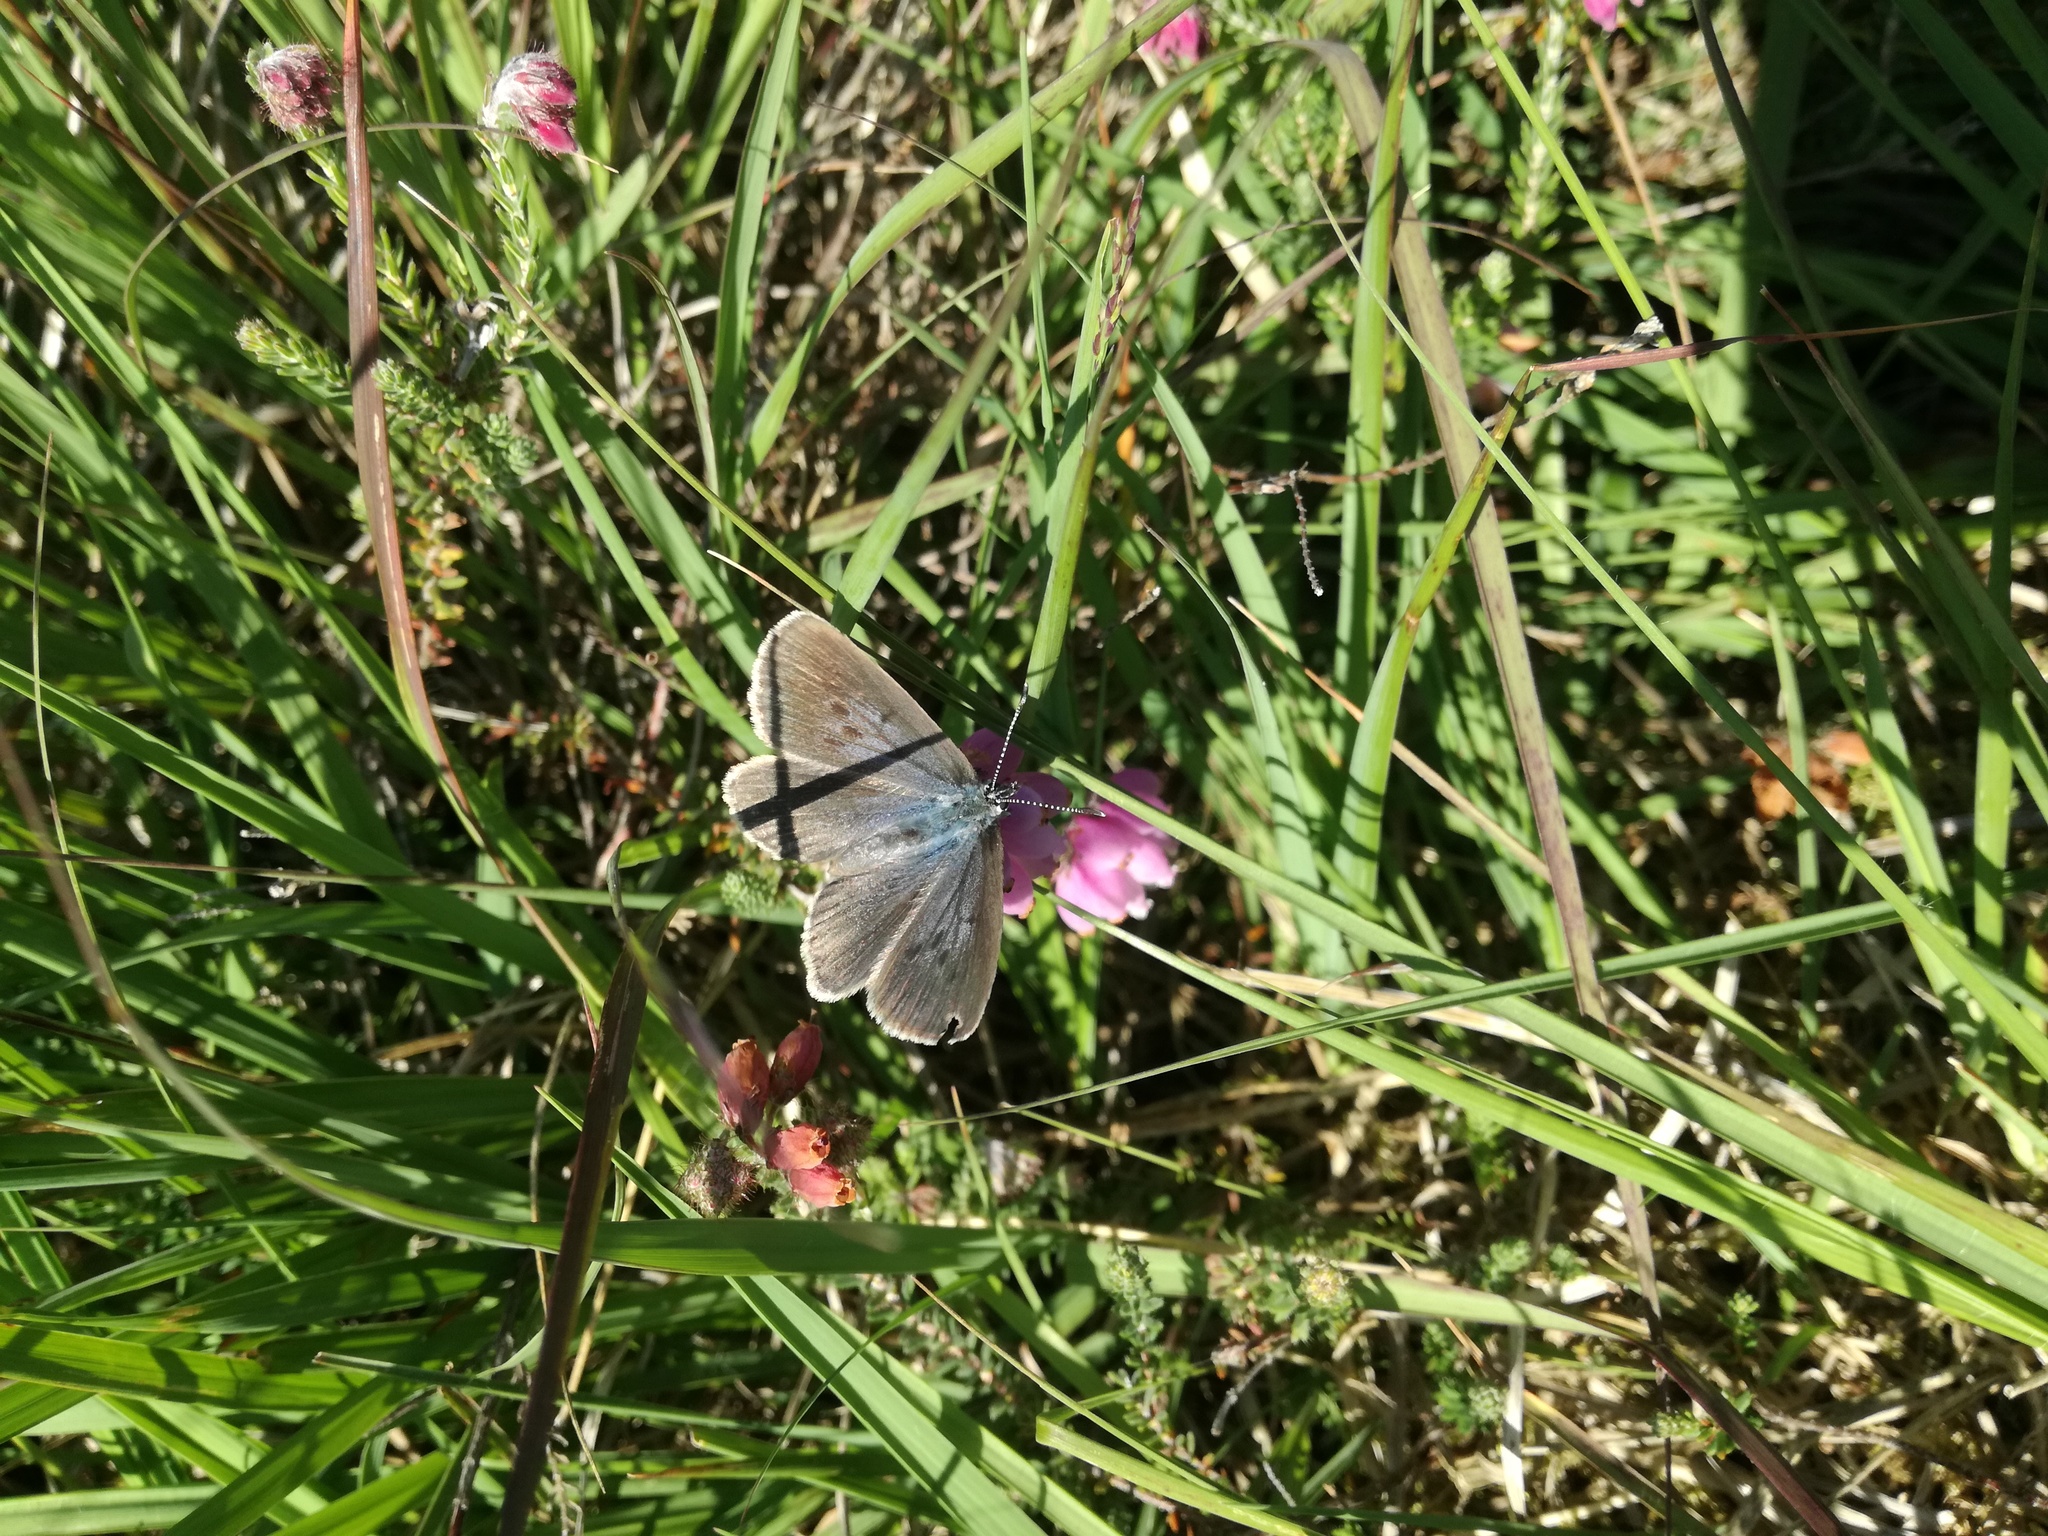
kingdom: Animalia
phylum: Arthropoda
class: Insecta
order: Lepidoptera
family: Lycaenidae
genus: Maculinea
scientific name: Maculinea alcon
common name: Alcon blue
